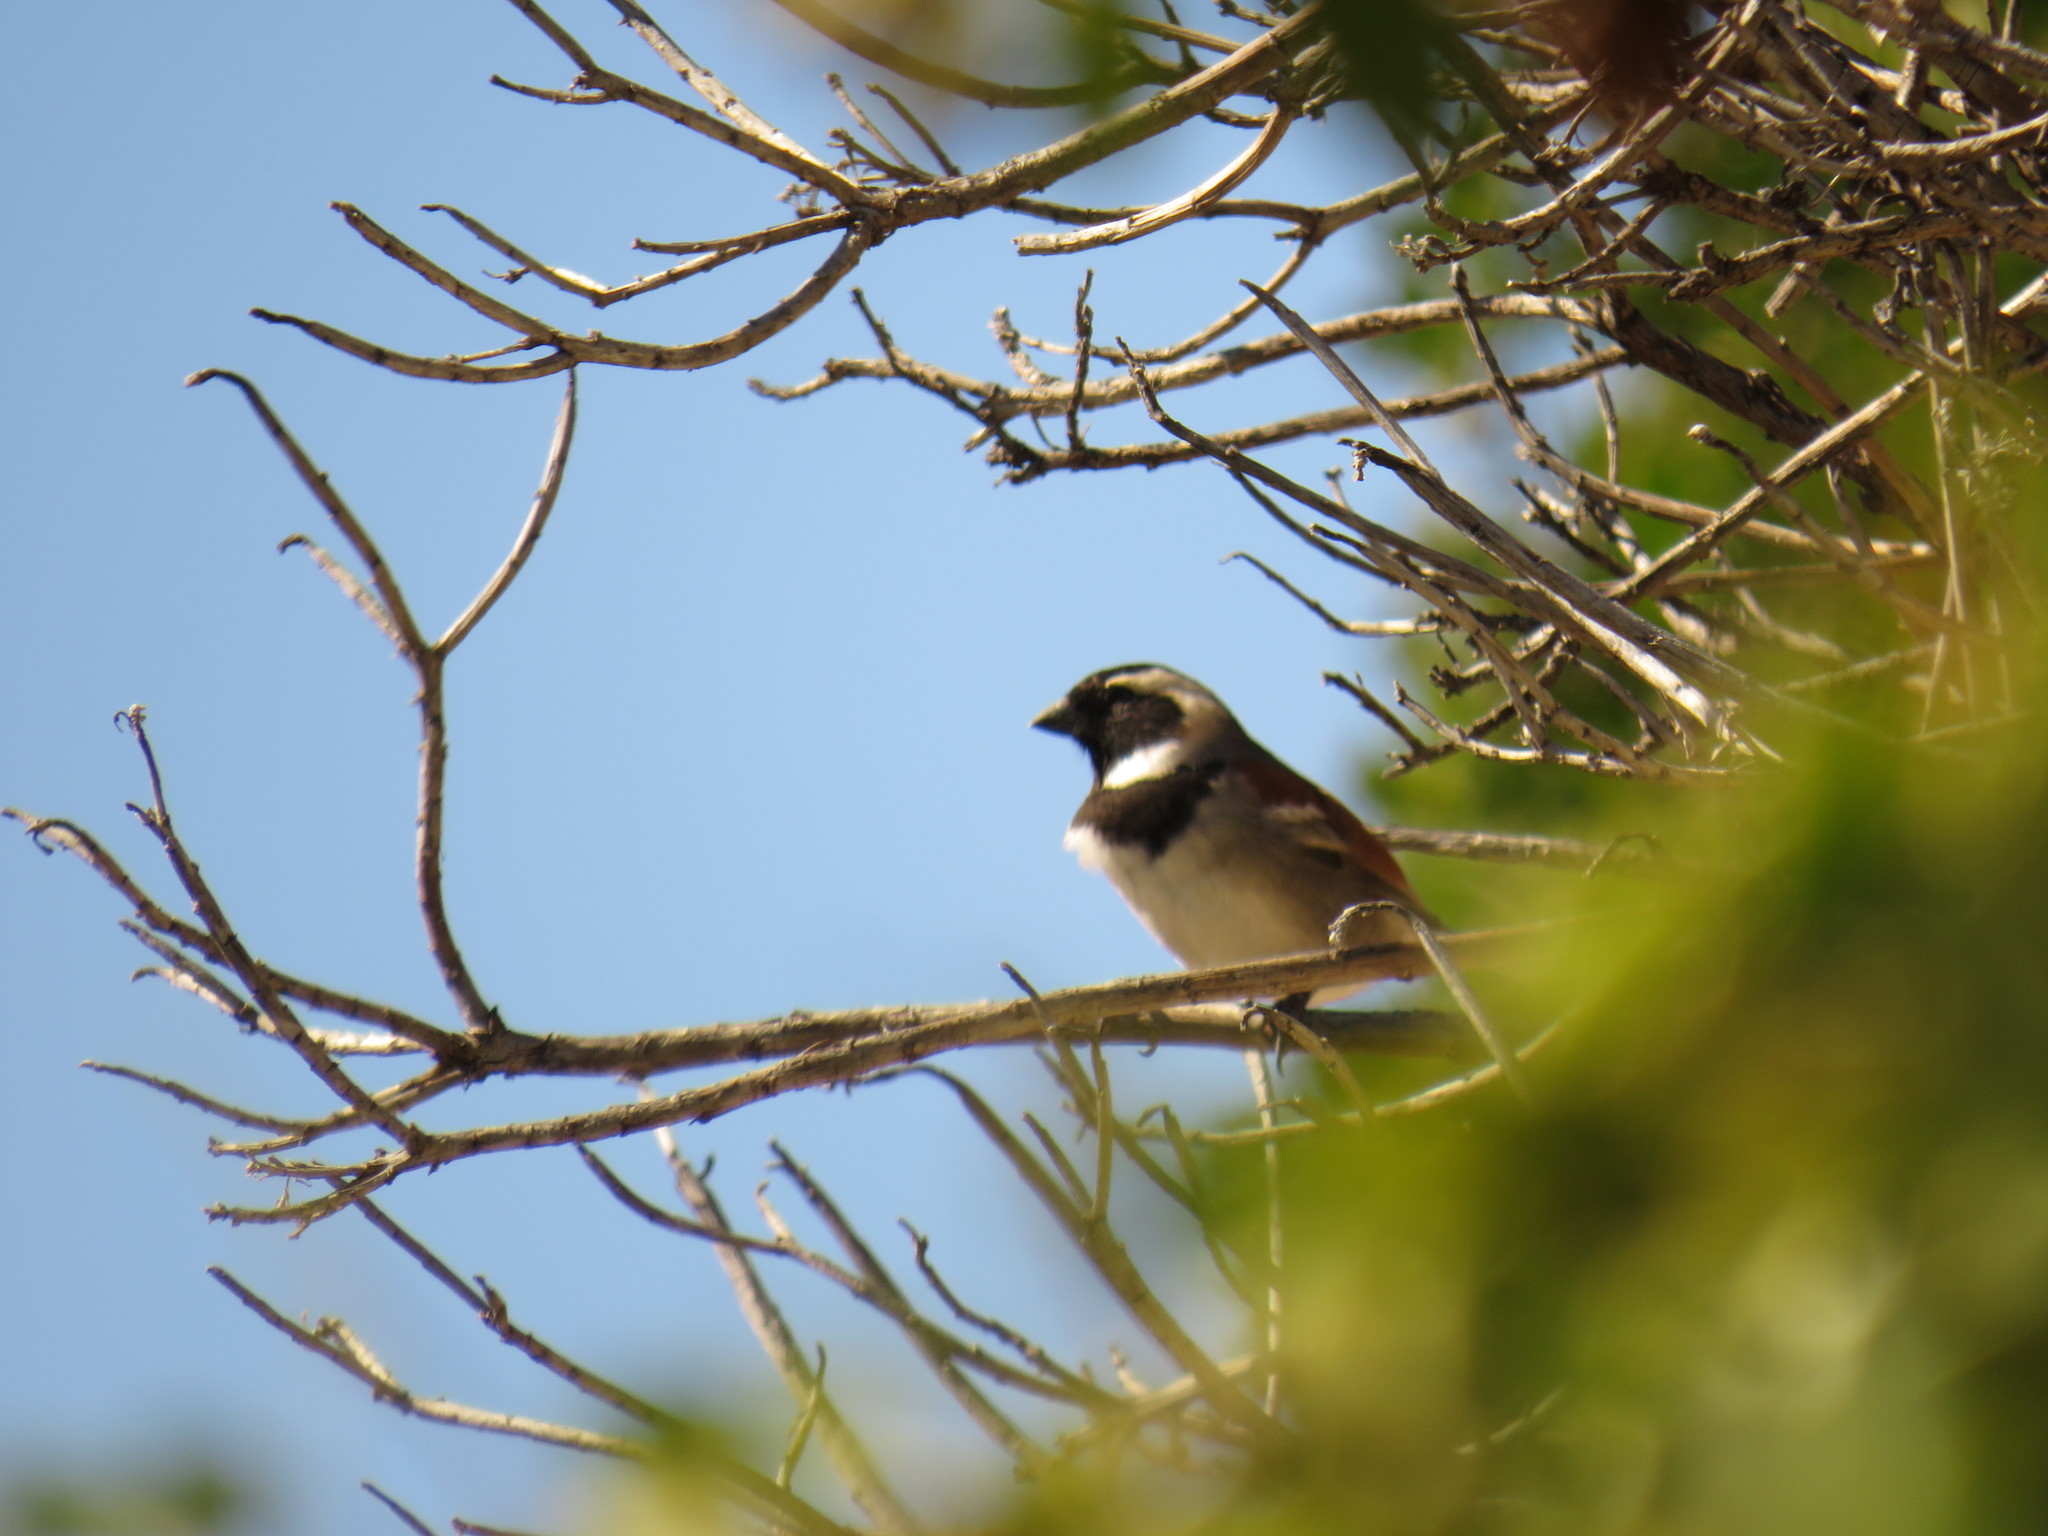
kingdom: Animalia
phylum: Chordata
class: Aves
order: Passeriformes
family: Passeridae
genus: Passer
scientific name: Passer melanurus
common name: Cape sparrow
